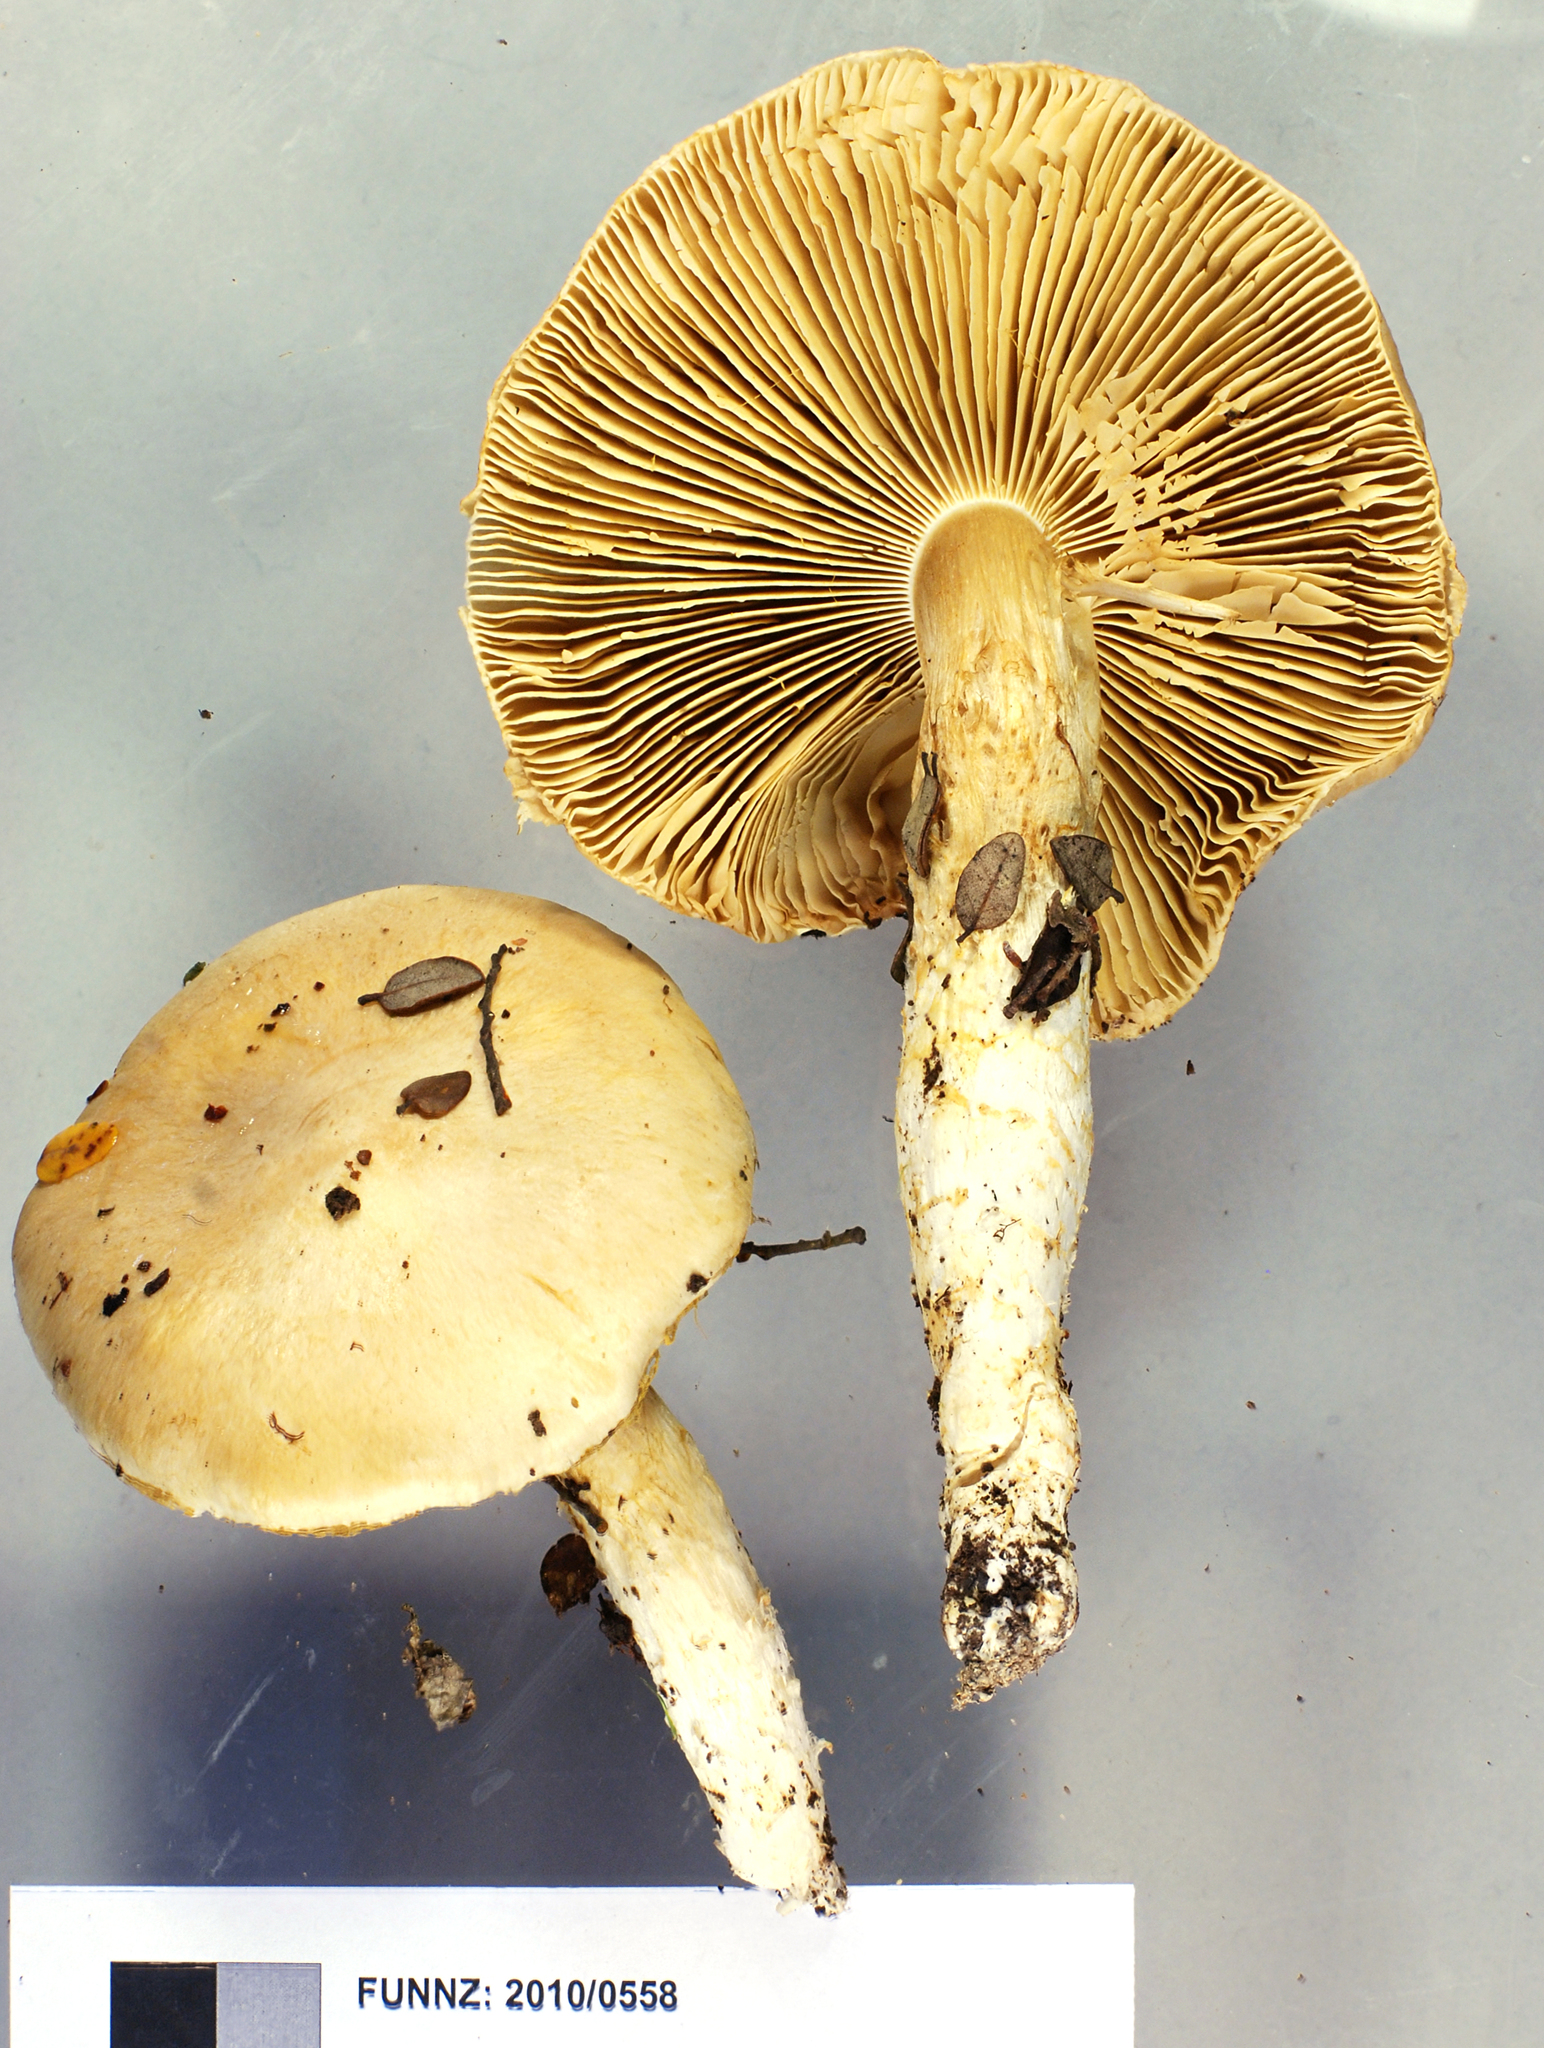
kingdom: Fungi
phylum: Basidiomycota
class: Agaricomycetes
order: Agaricales
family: Cortinariaceae
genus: Thaxterogaster
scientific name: Thaxterogaster alboaggregatus
